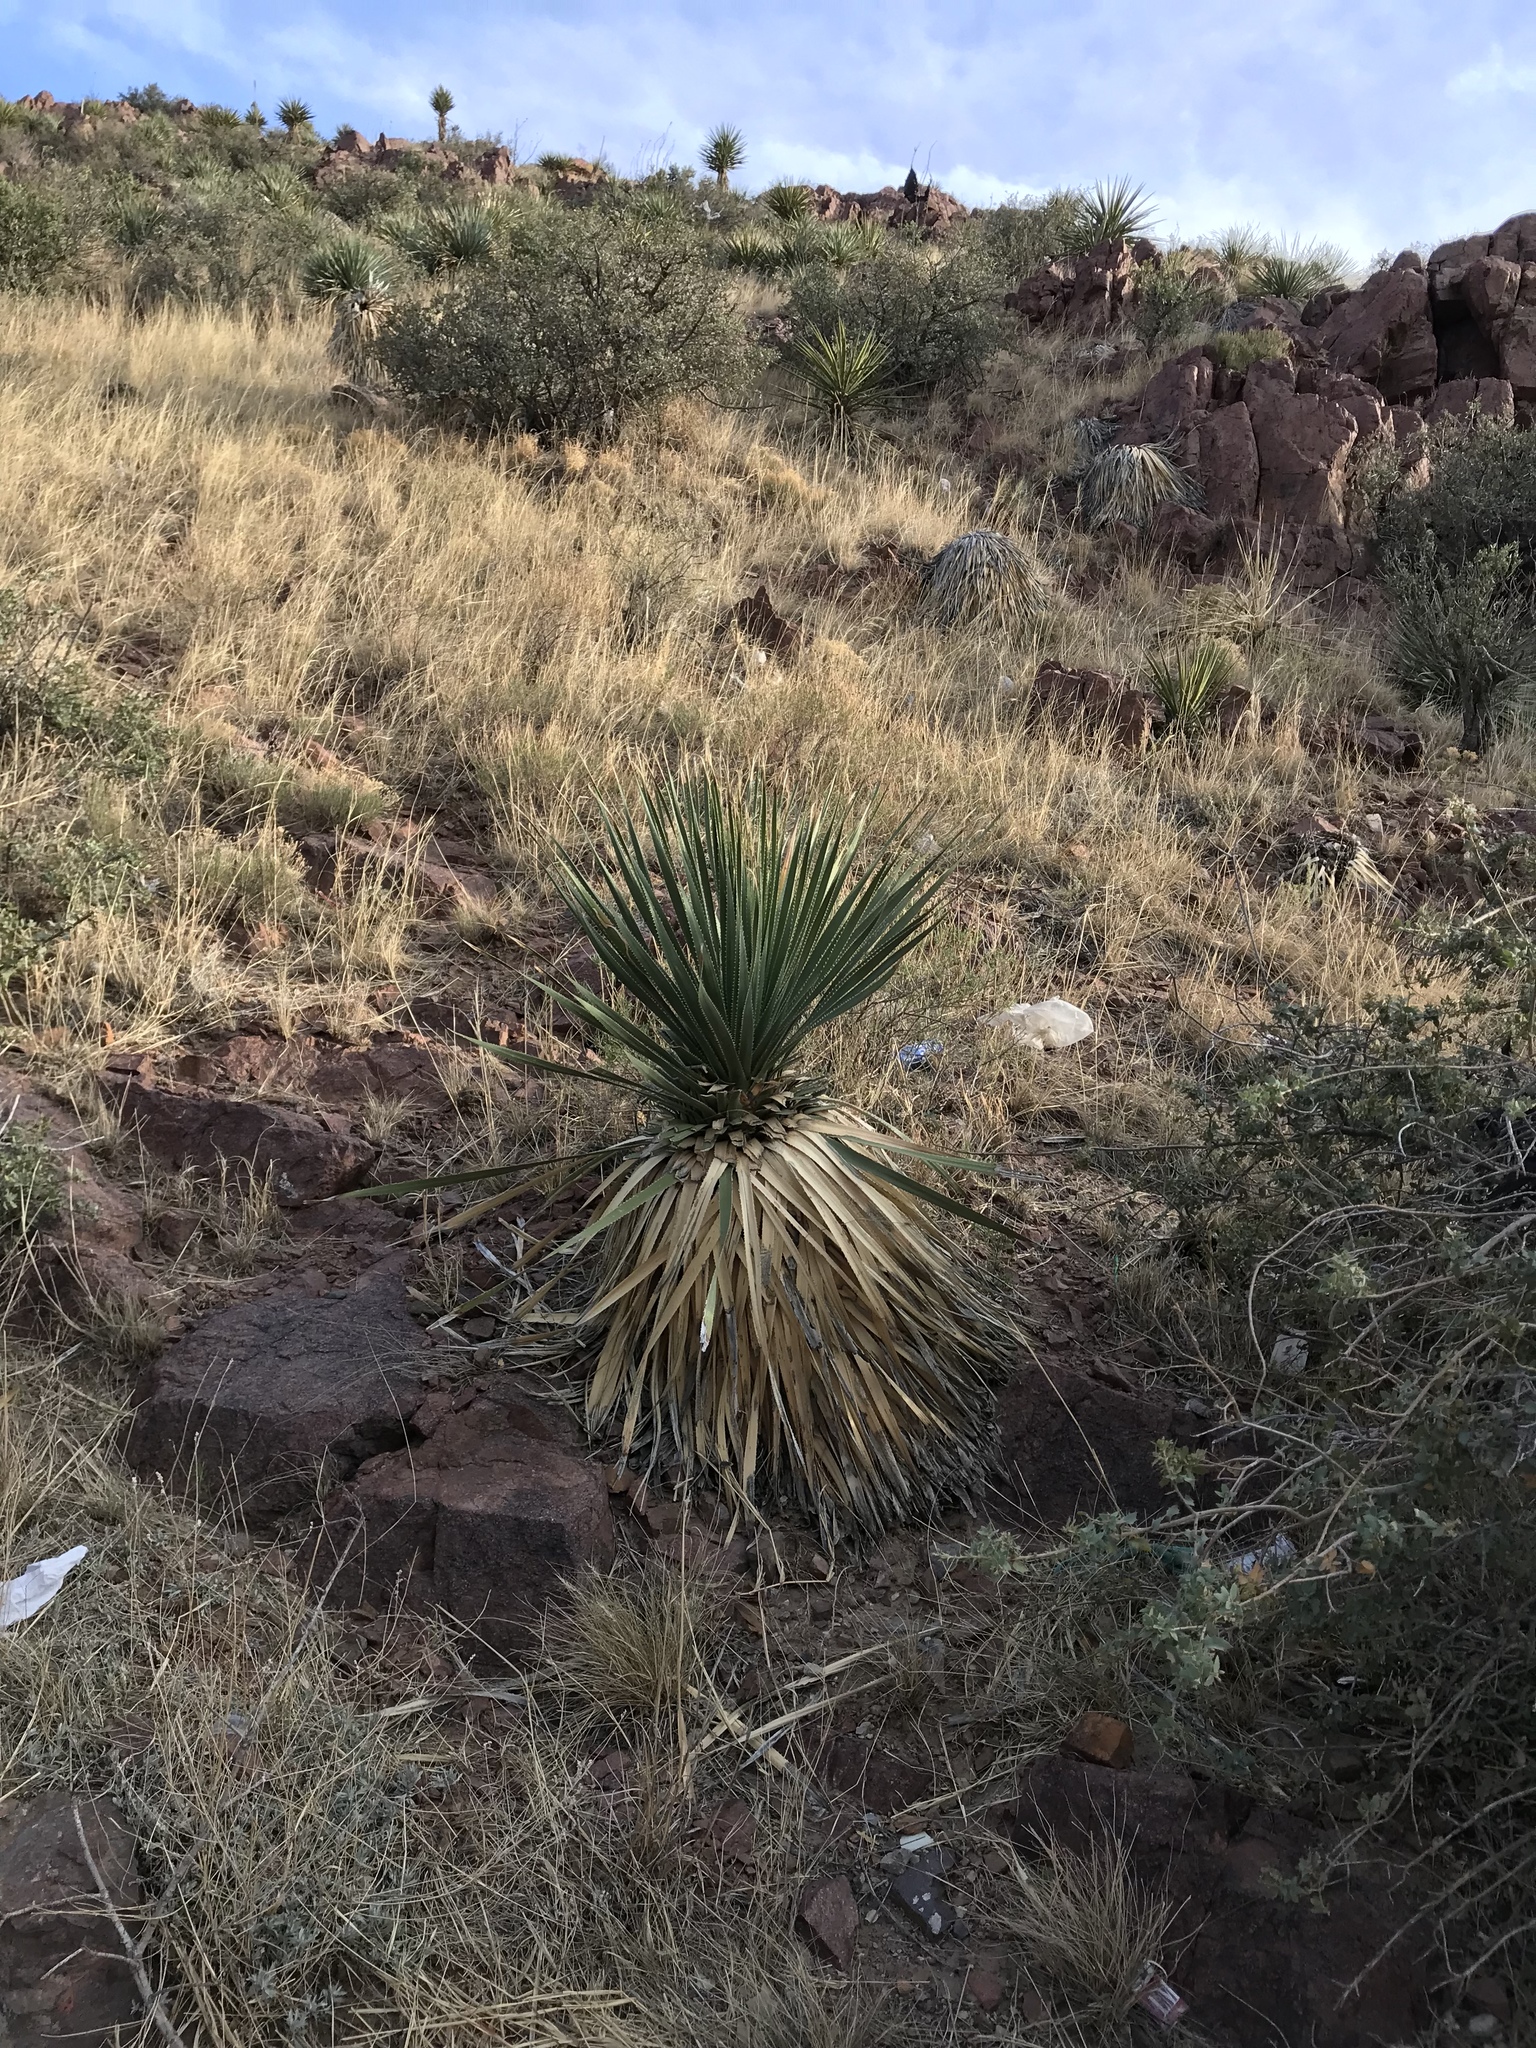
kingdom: Plantae
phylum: Tracheophyta
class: Liliopsida
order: Asparagales
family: Asparagaceae
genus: Dasylirion
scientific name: Dasylirion wheeleri
